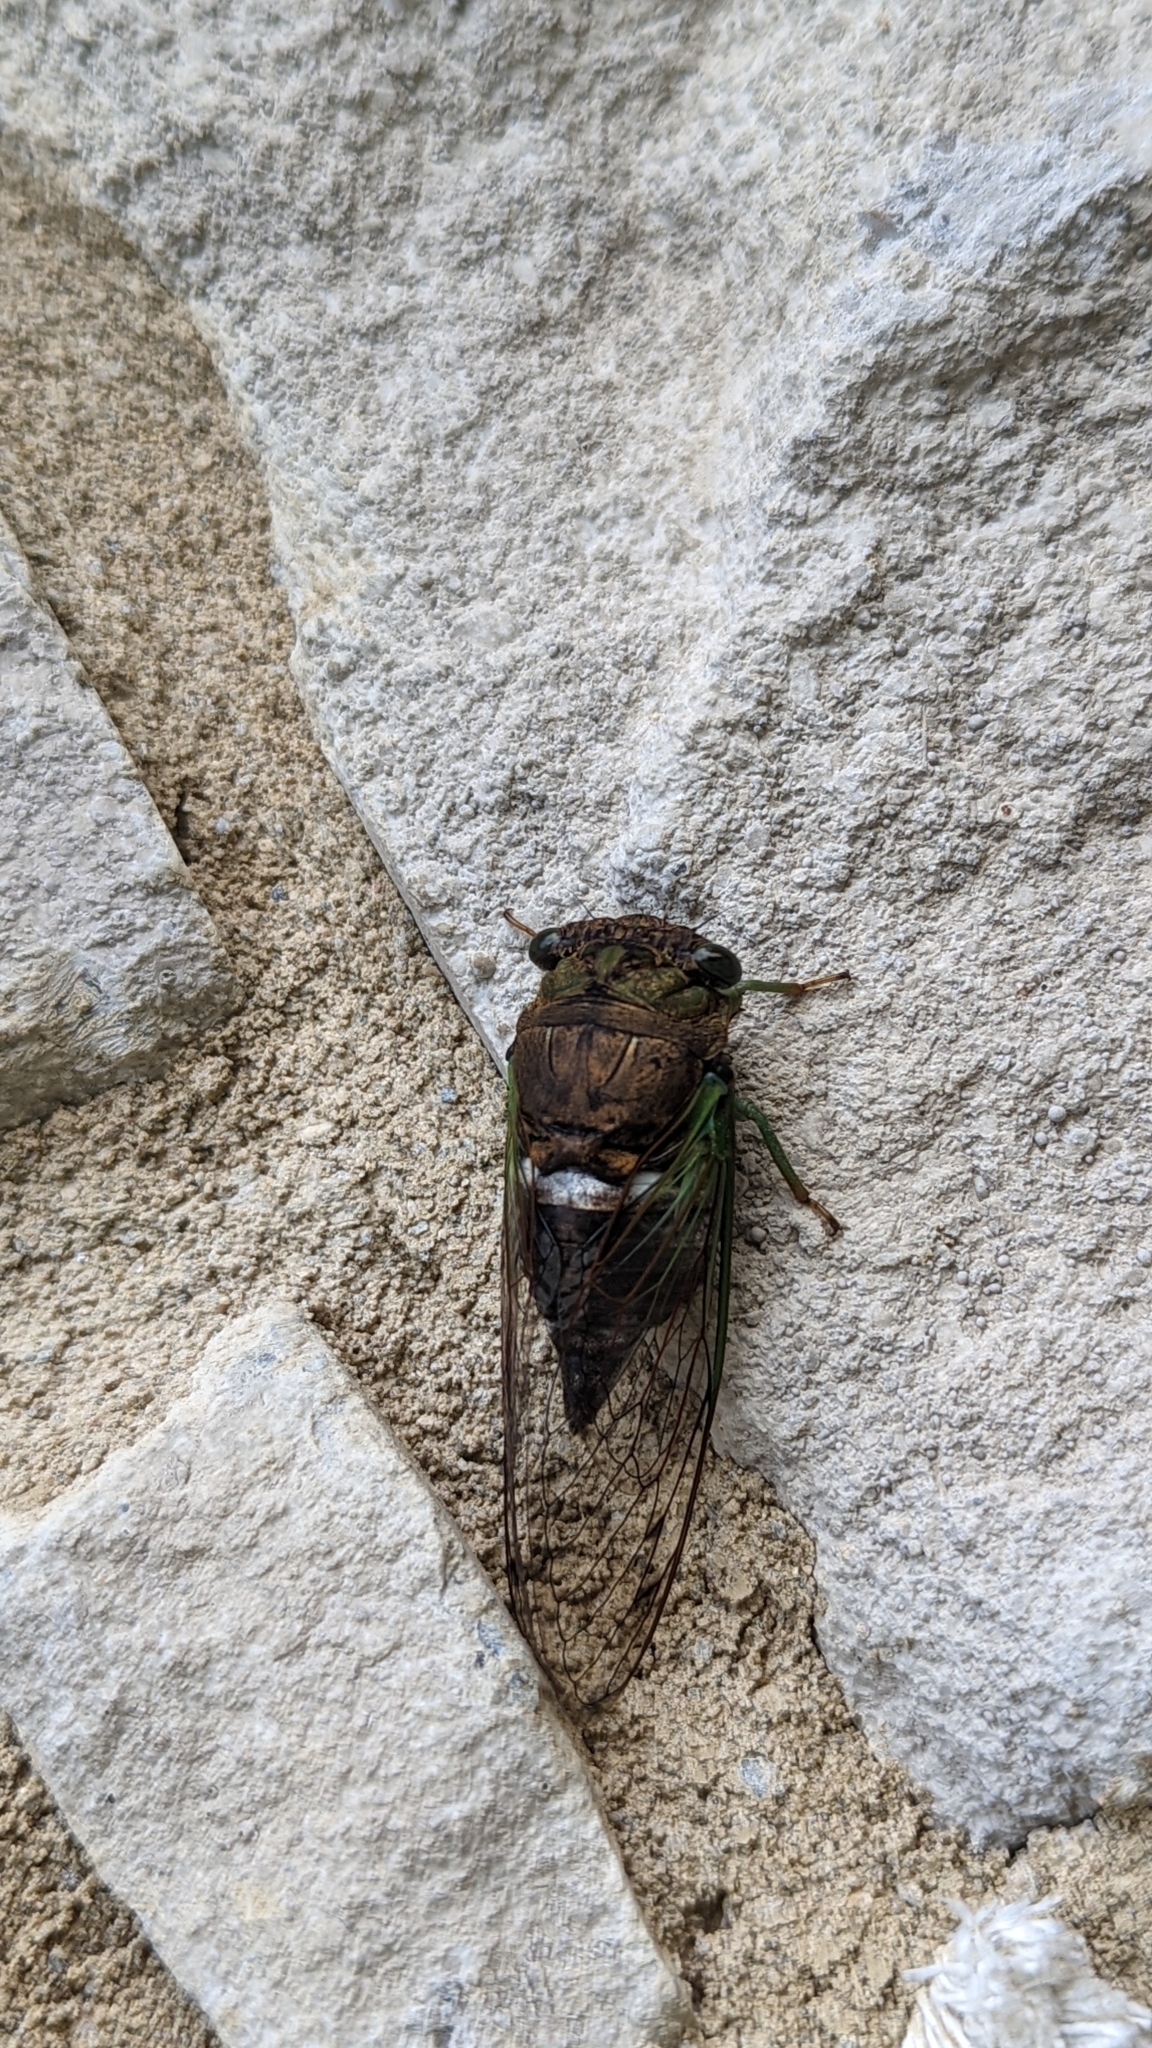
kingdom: Animalia
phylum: Arthropoda
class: Insecta
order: Hemiptera
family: Cicadidae
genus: Neotibicen
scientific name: Neotibicen tibicen
